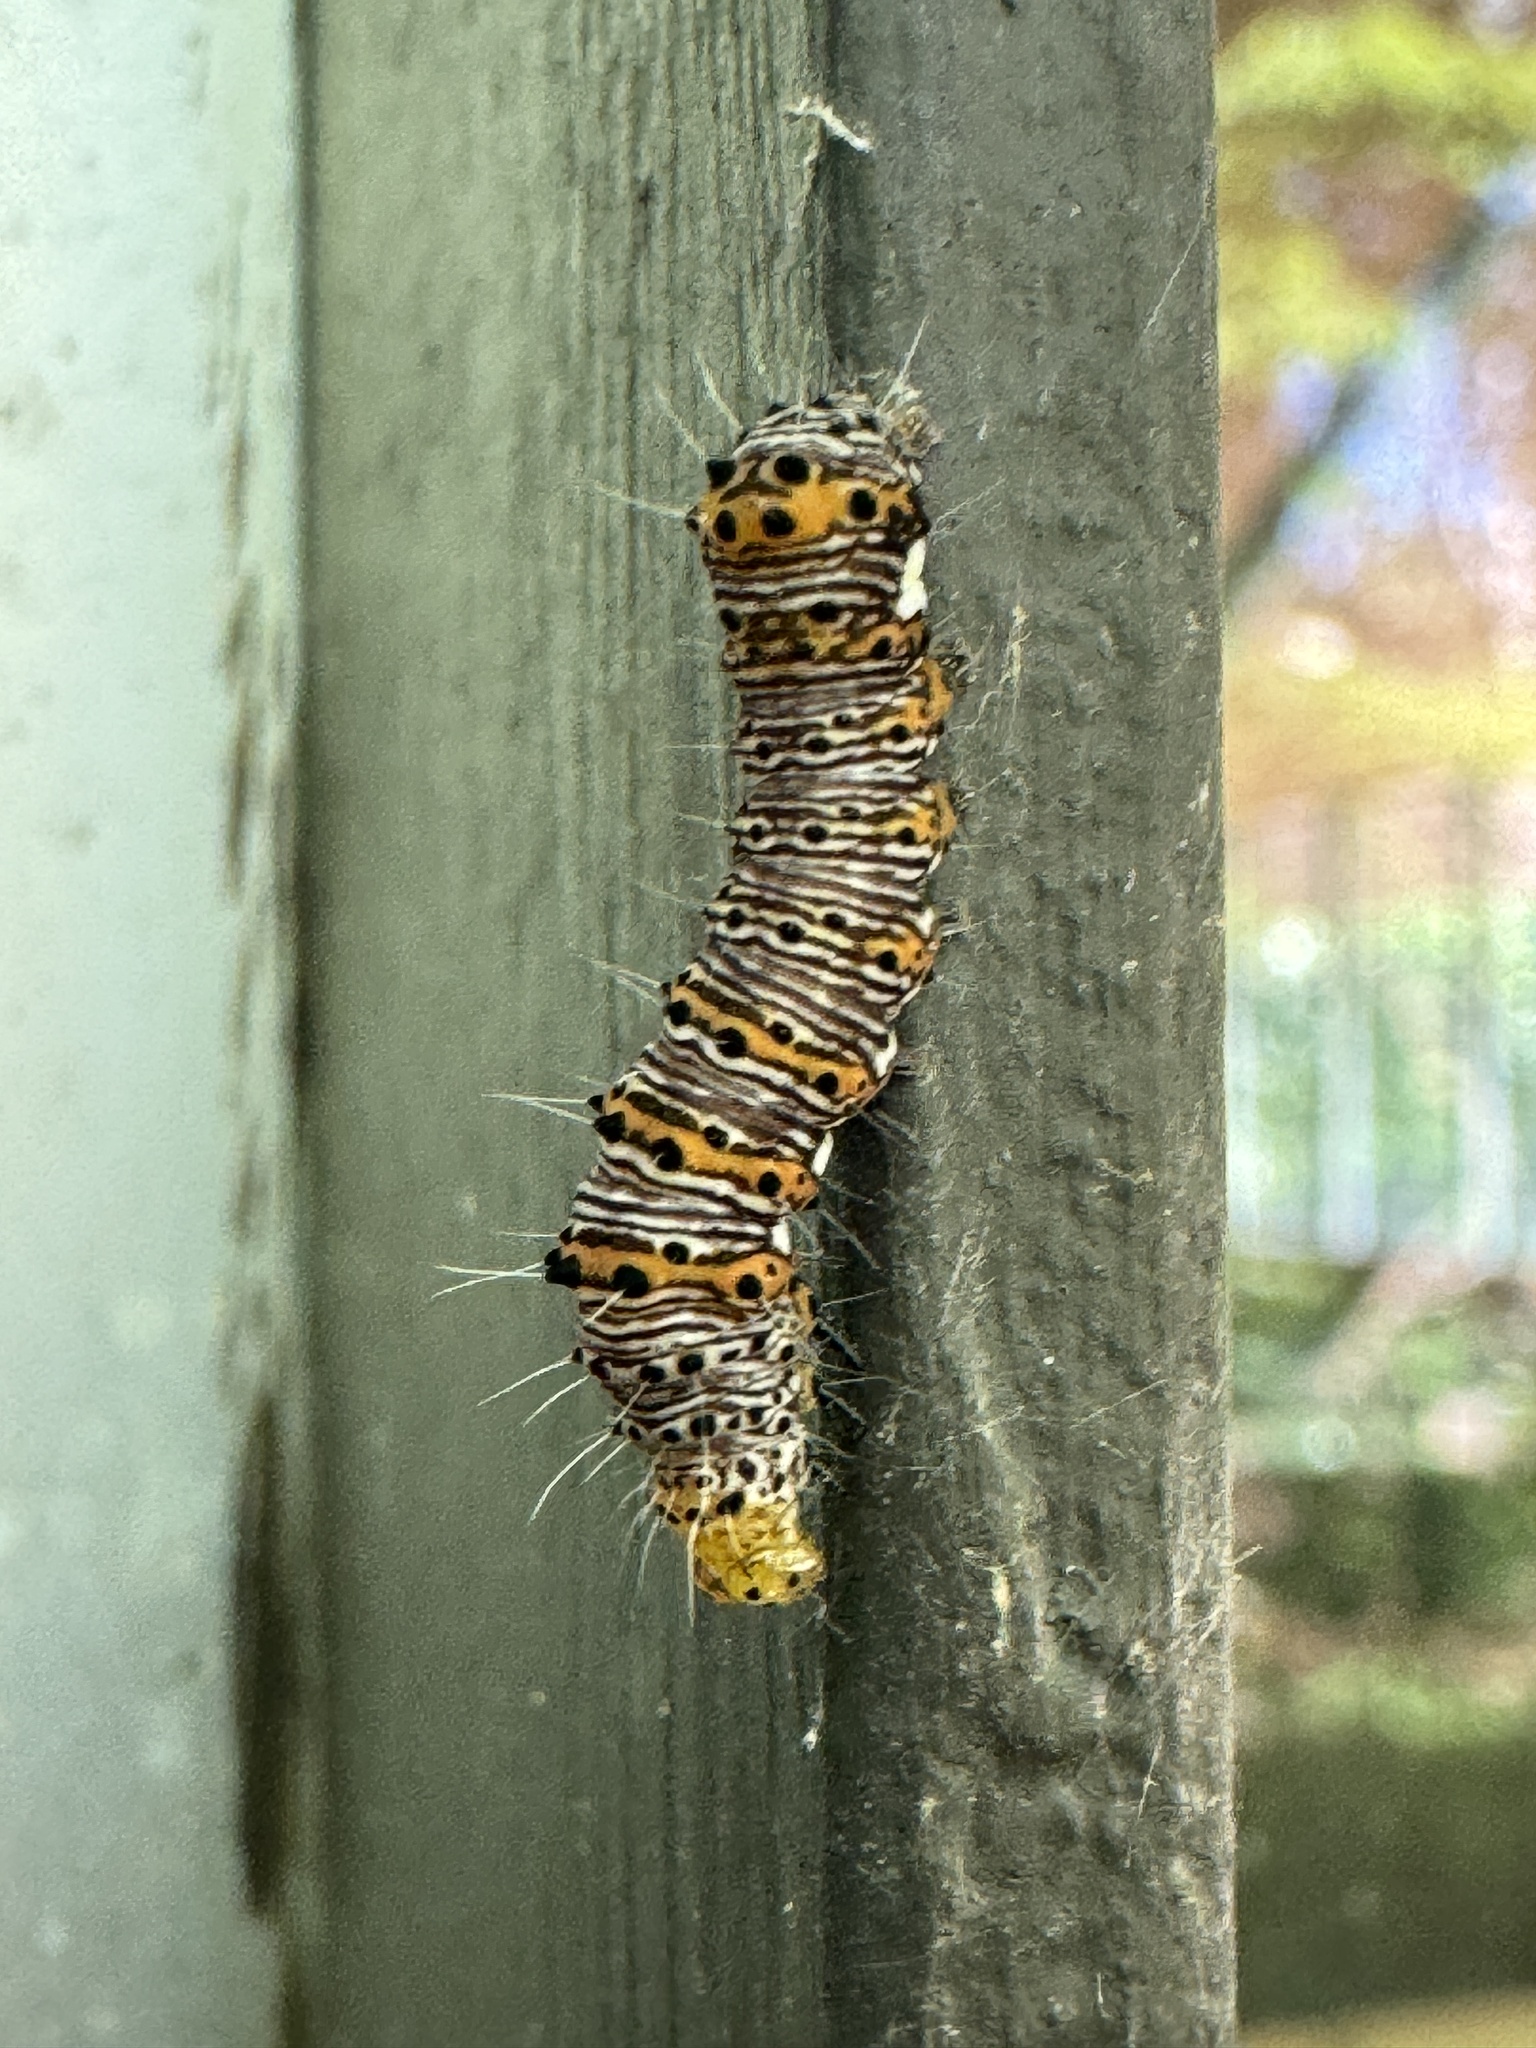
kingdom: Animalia
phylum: Arthropoda
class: Insecta
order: Lepidoptera
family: Noctuidae
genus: Alypia
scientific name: Alypia octomaculata
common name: Eight-spotted forester
